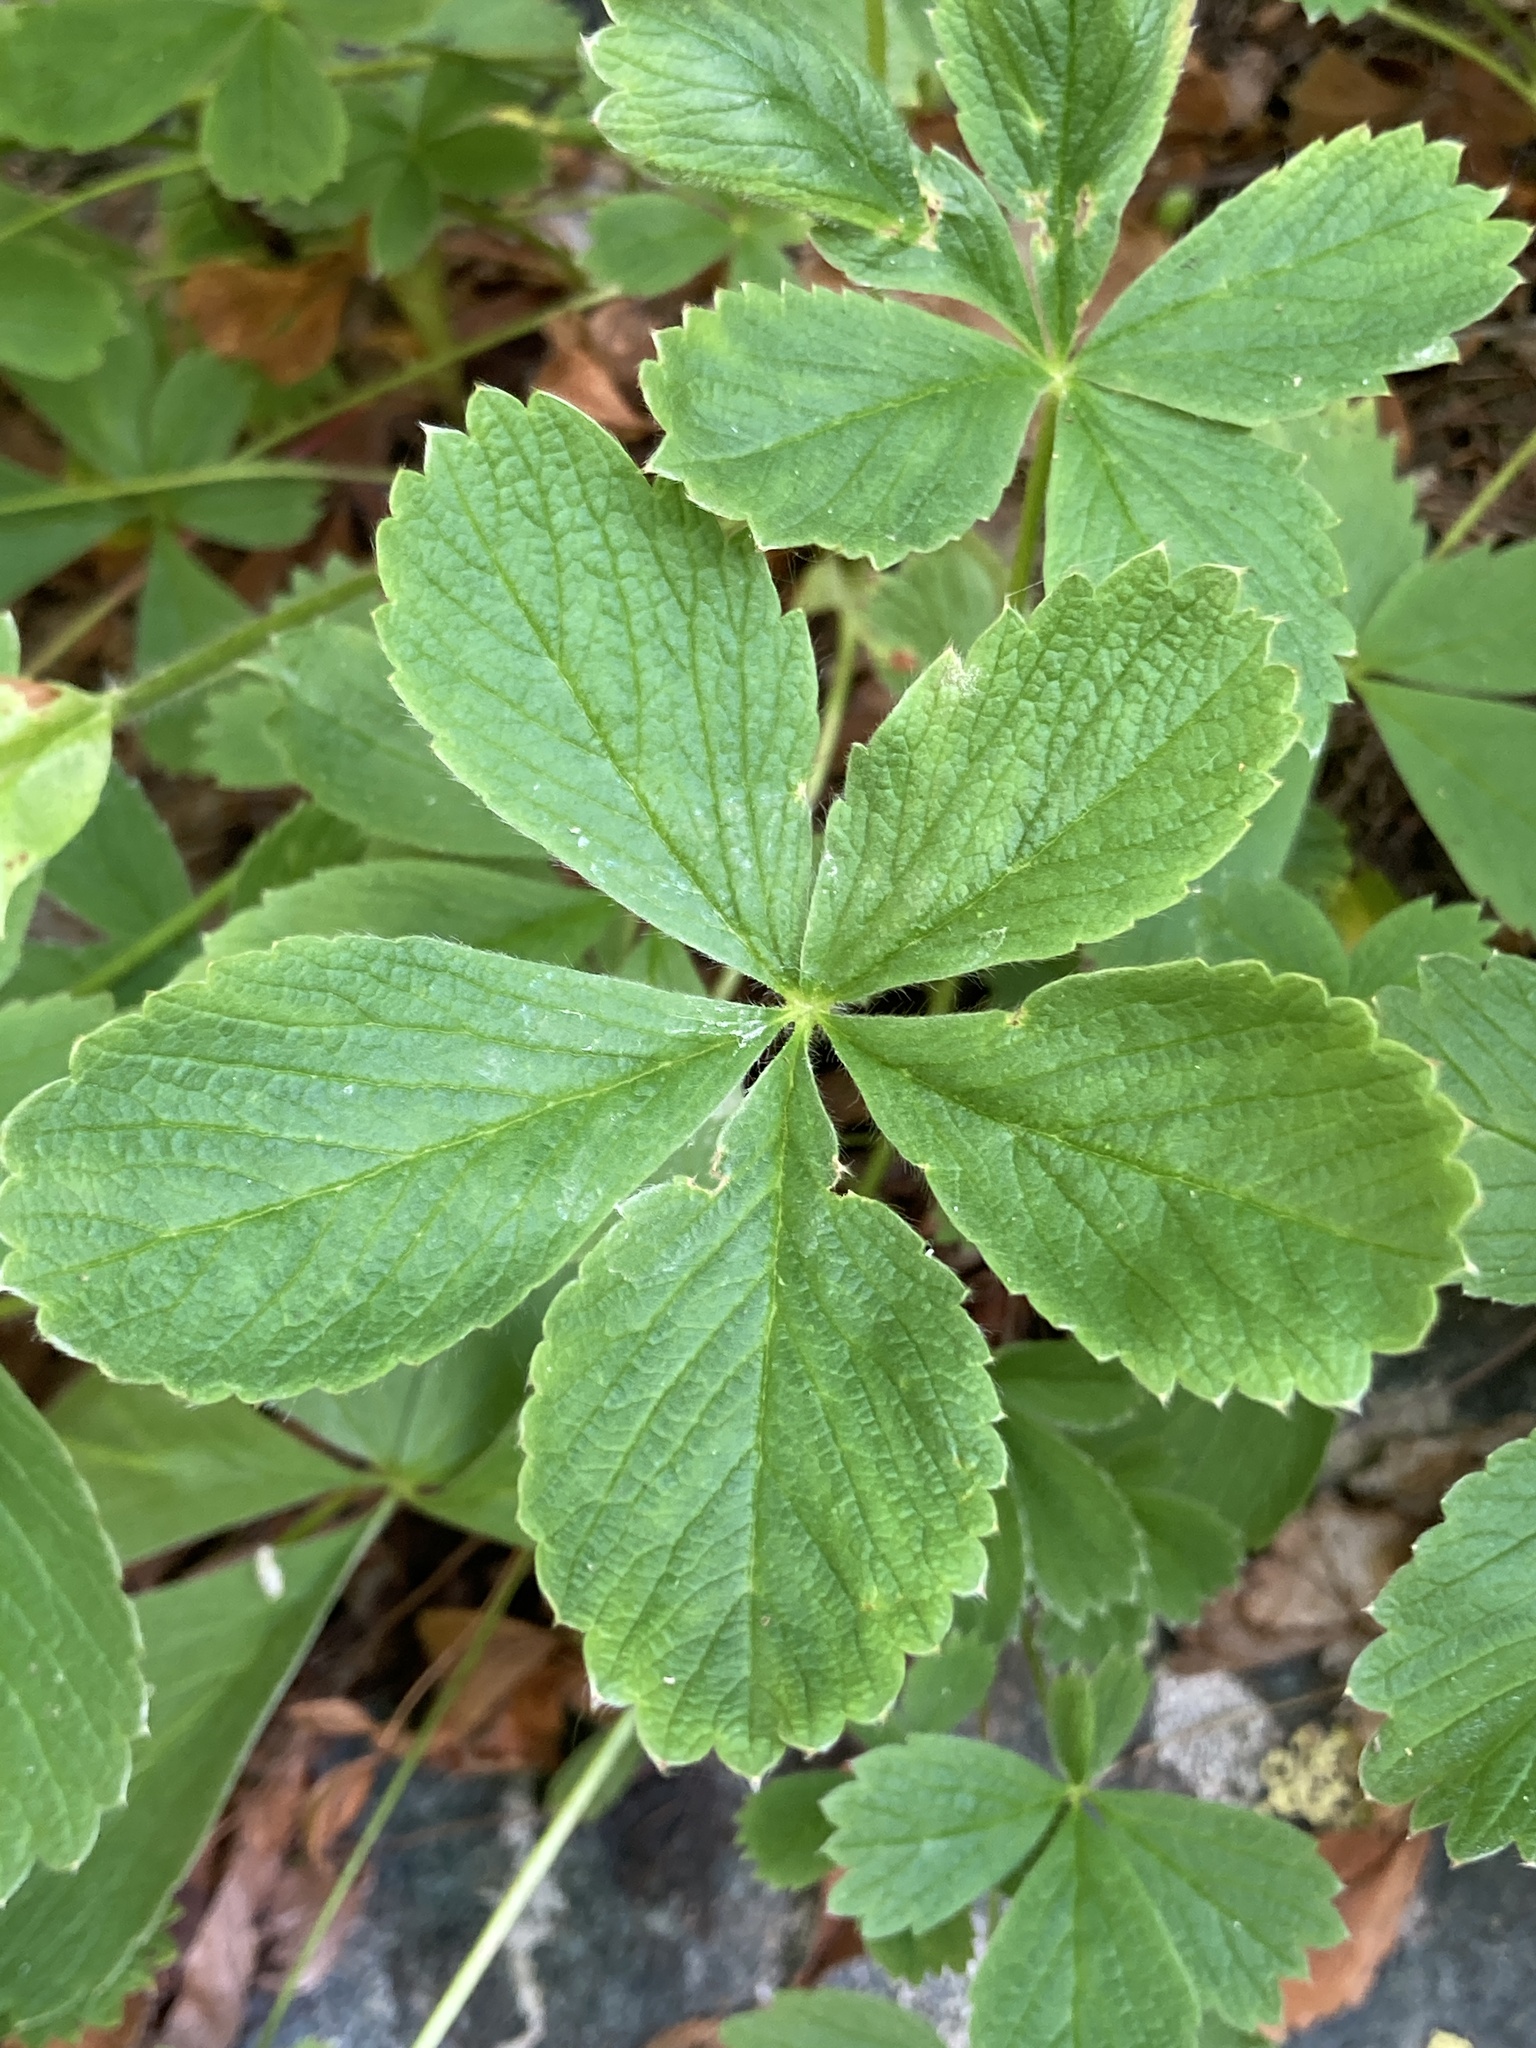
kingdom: Plantae
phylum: Tracheophyta
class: Magnoliopsida
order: Rosales
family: Rosaceae
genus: Potentilla
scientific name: Potentilla brachypetala
